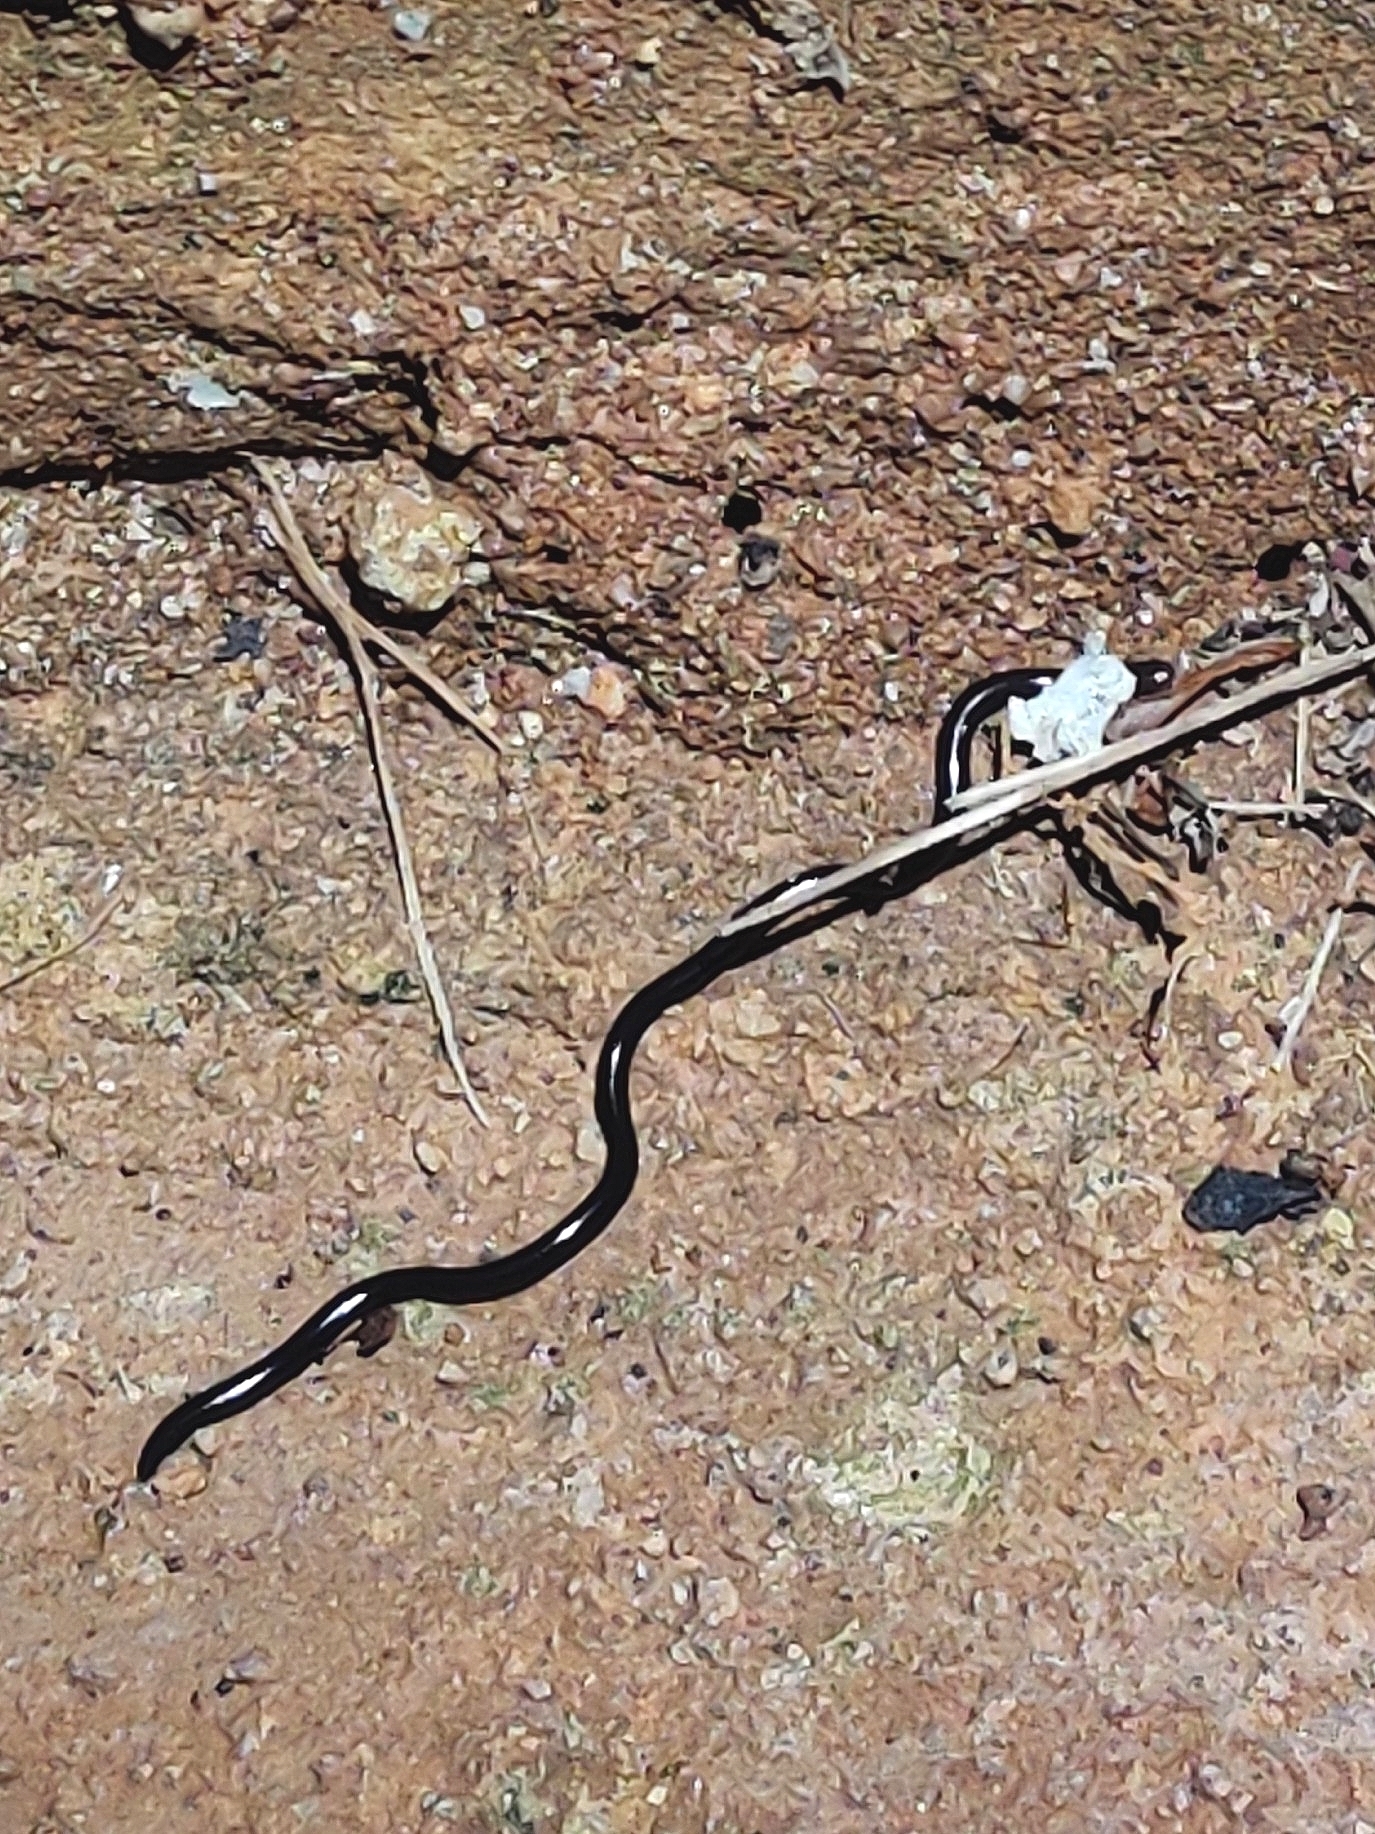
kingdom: Animalia
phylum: Chordata
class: Squamata
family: Typhlopidae
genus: Indotyphlops
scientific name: Indotyphlops braminus
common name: Brahminy blindsnake
